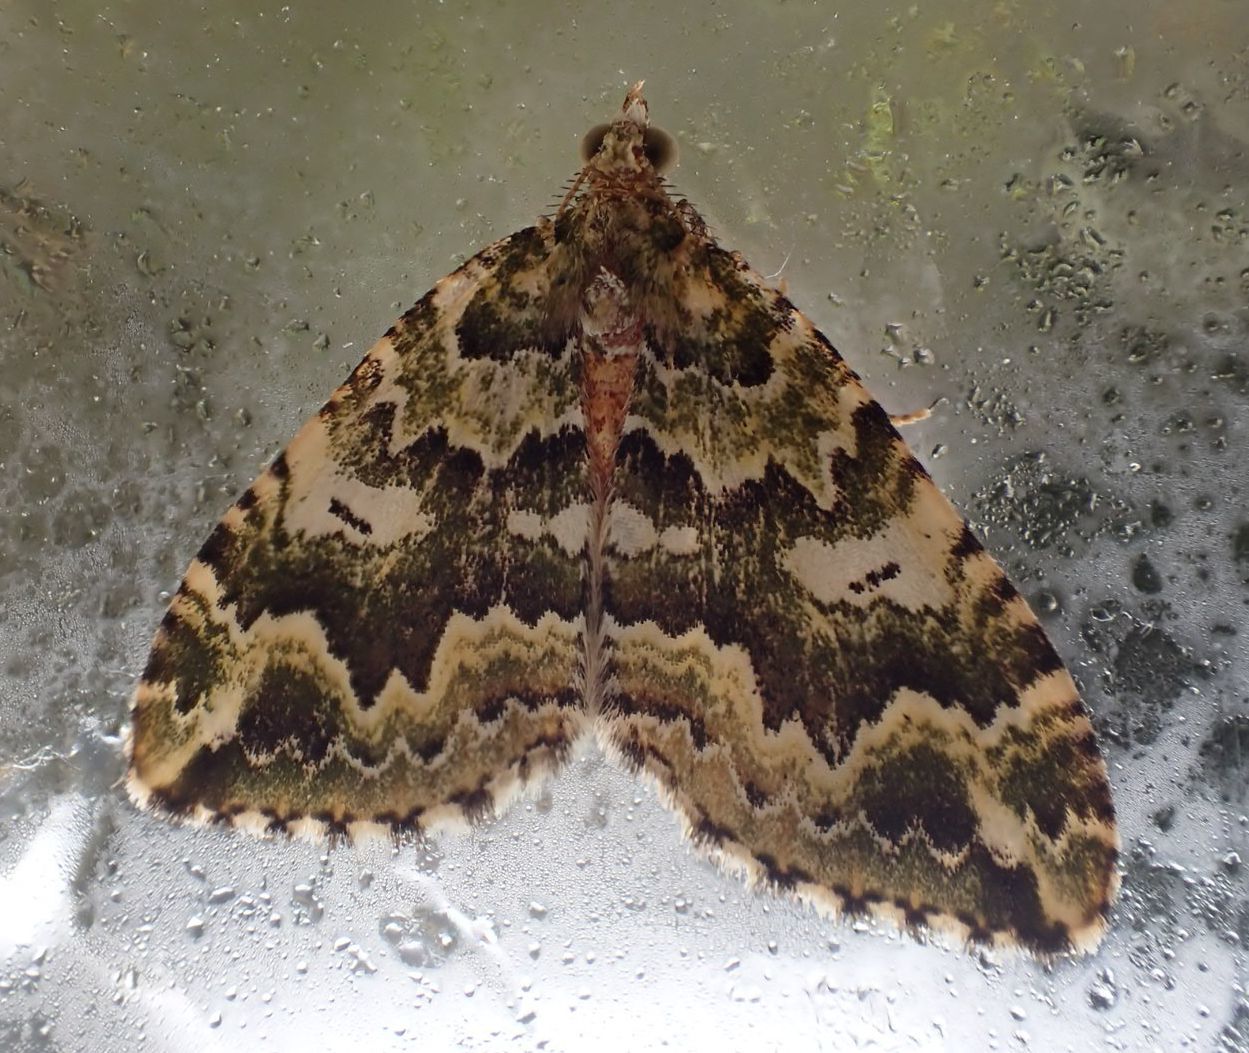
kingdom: Animalia
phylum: Arthropoda
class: Insecta
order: Lepidoptera
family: Geometridae
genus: Asaphodes
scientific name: Asaphodes beata
